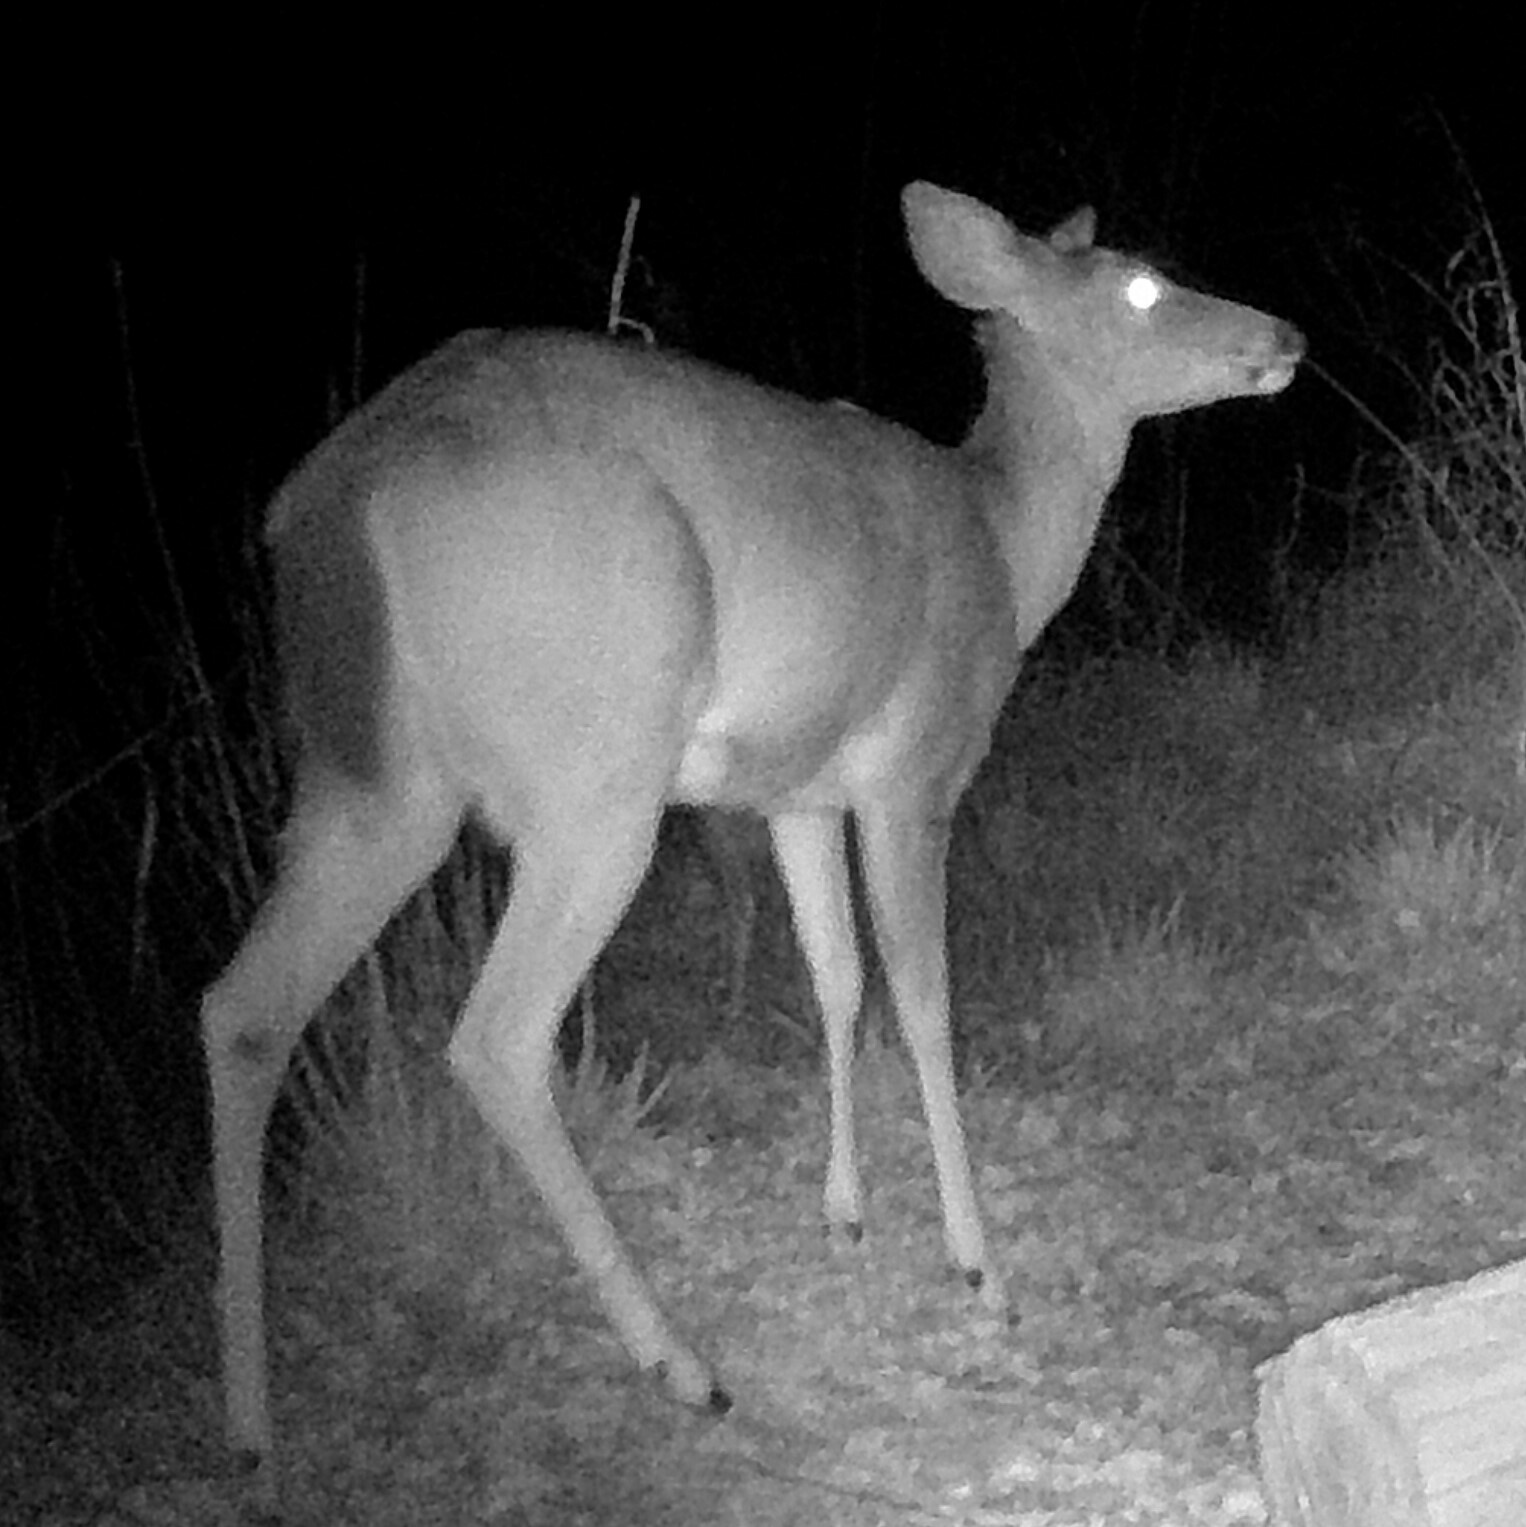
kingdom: Animalia
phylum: Chordata
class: Mammalia
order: Artiodactyla
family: Cervidae
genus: Odocoileus
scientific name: Odocoileus virginianus
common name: White-tailed deer
